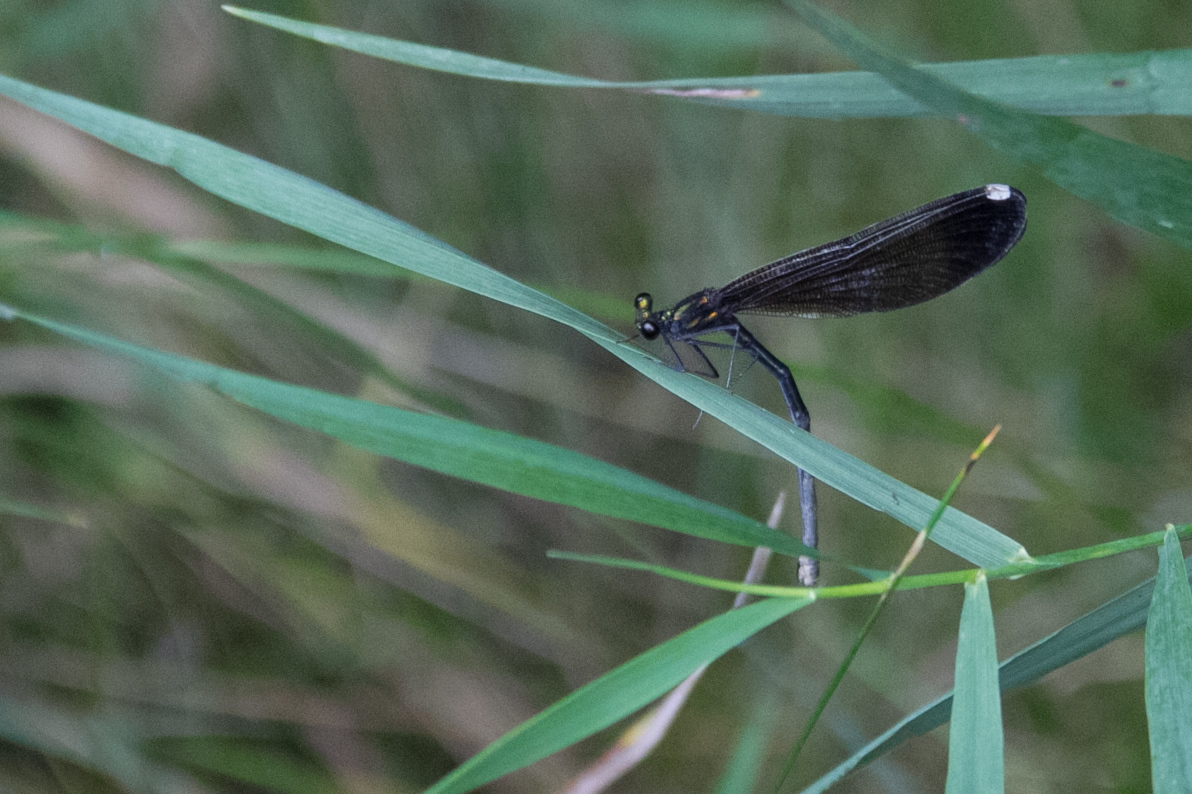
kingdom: Animalia
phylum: Arthropoda
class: Insecta
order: Odonata
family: Calopterygidae
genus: Calopteryx
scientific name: Calopteryx maculata
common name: Ebony jewelwing
